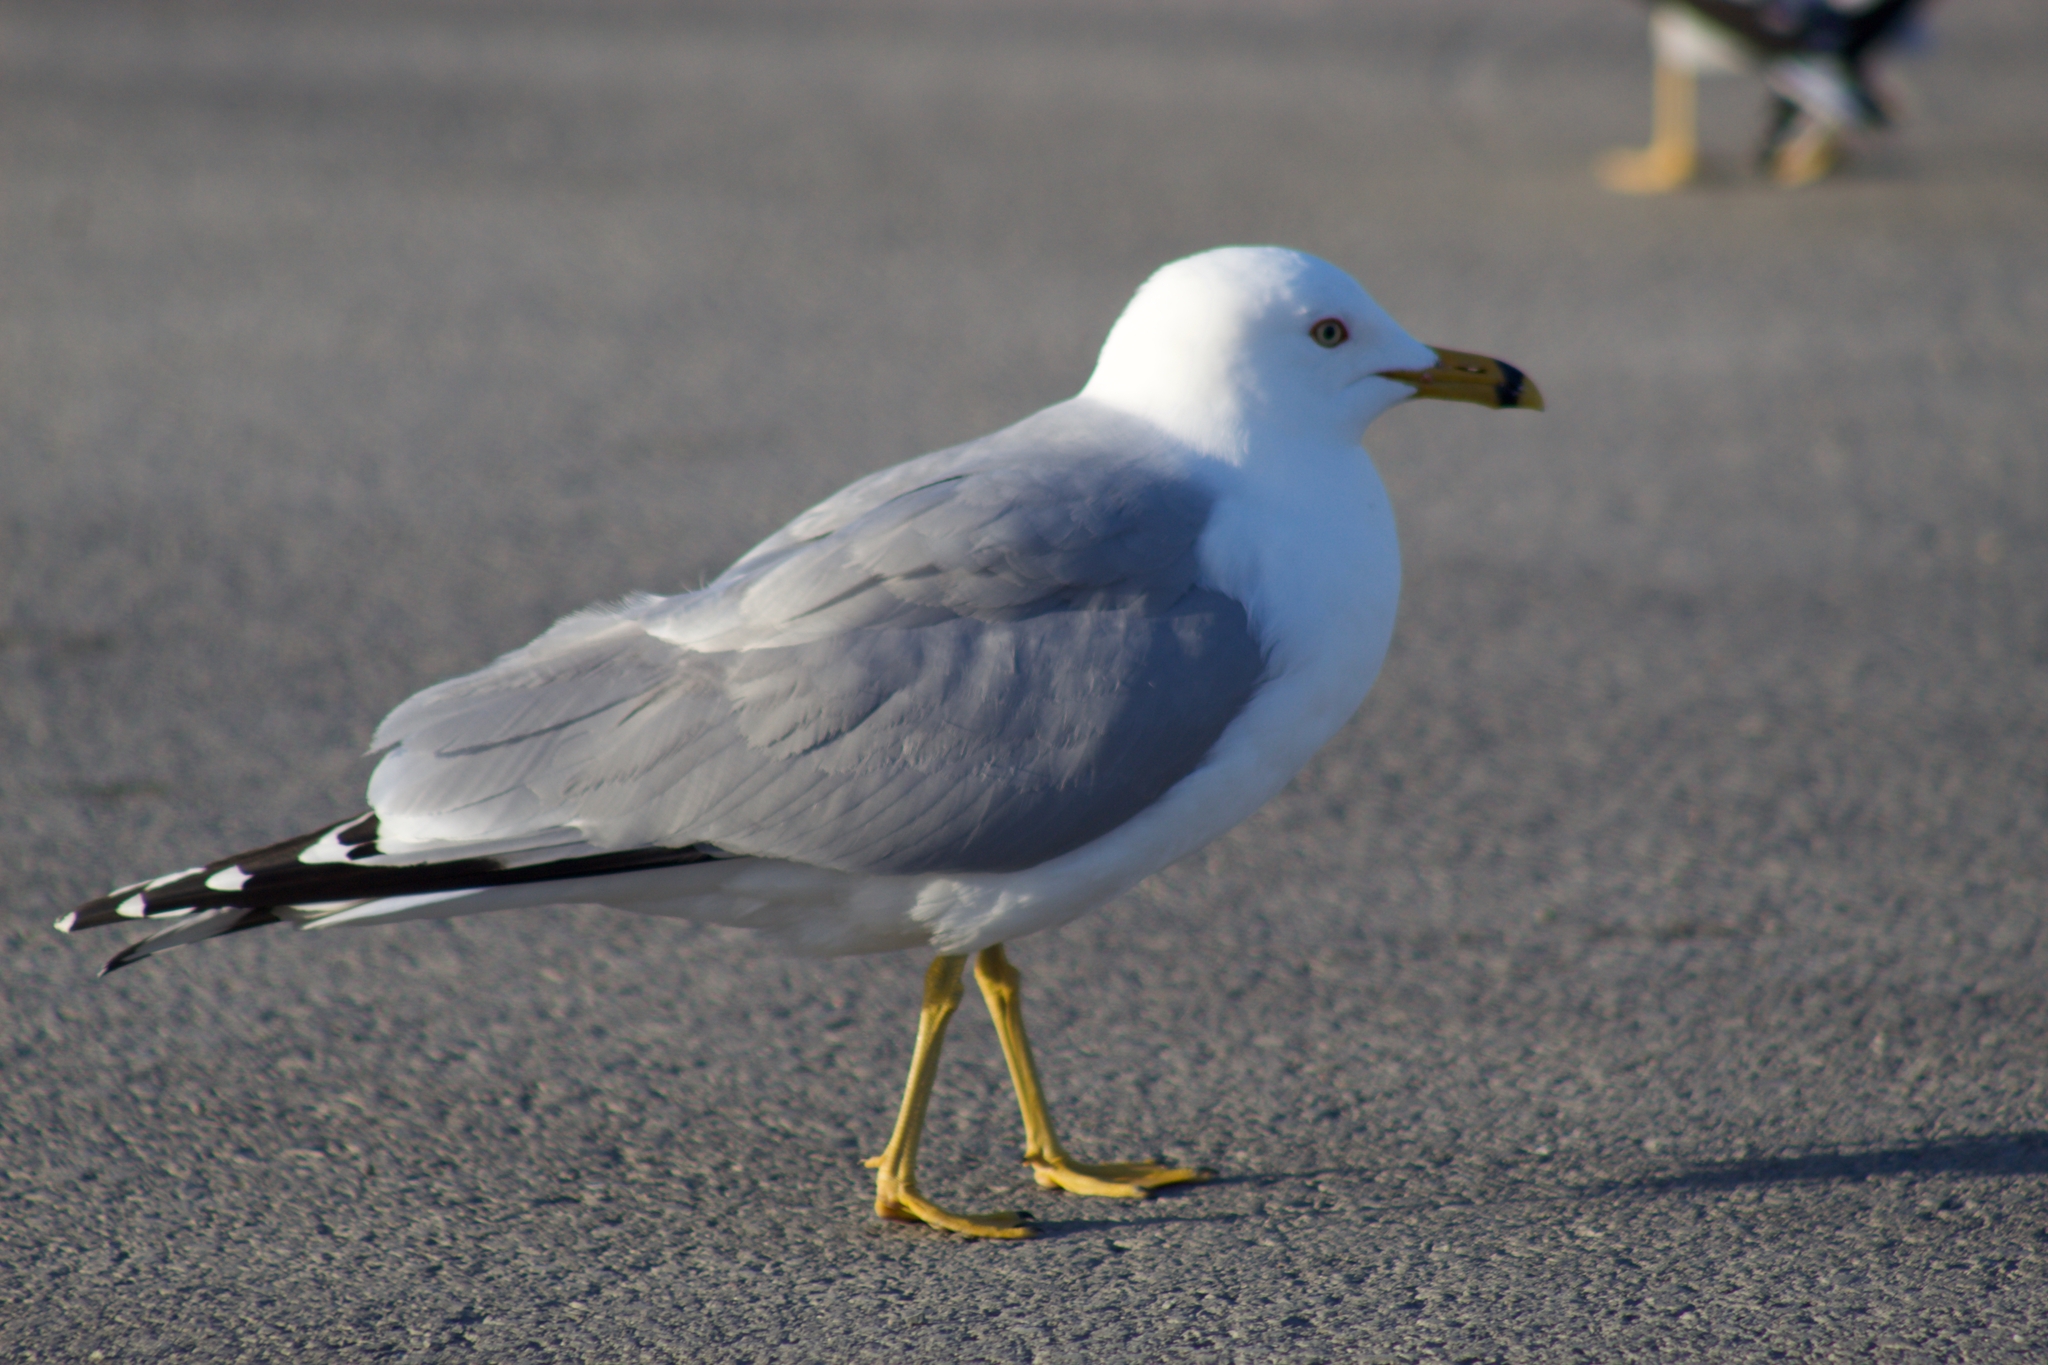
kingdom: Animalia
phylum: Chordata
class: Aves
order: Charadriiformes
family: Laridae
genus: Larus
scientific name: Larus delawarensis
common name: Ring-billed gull
